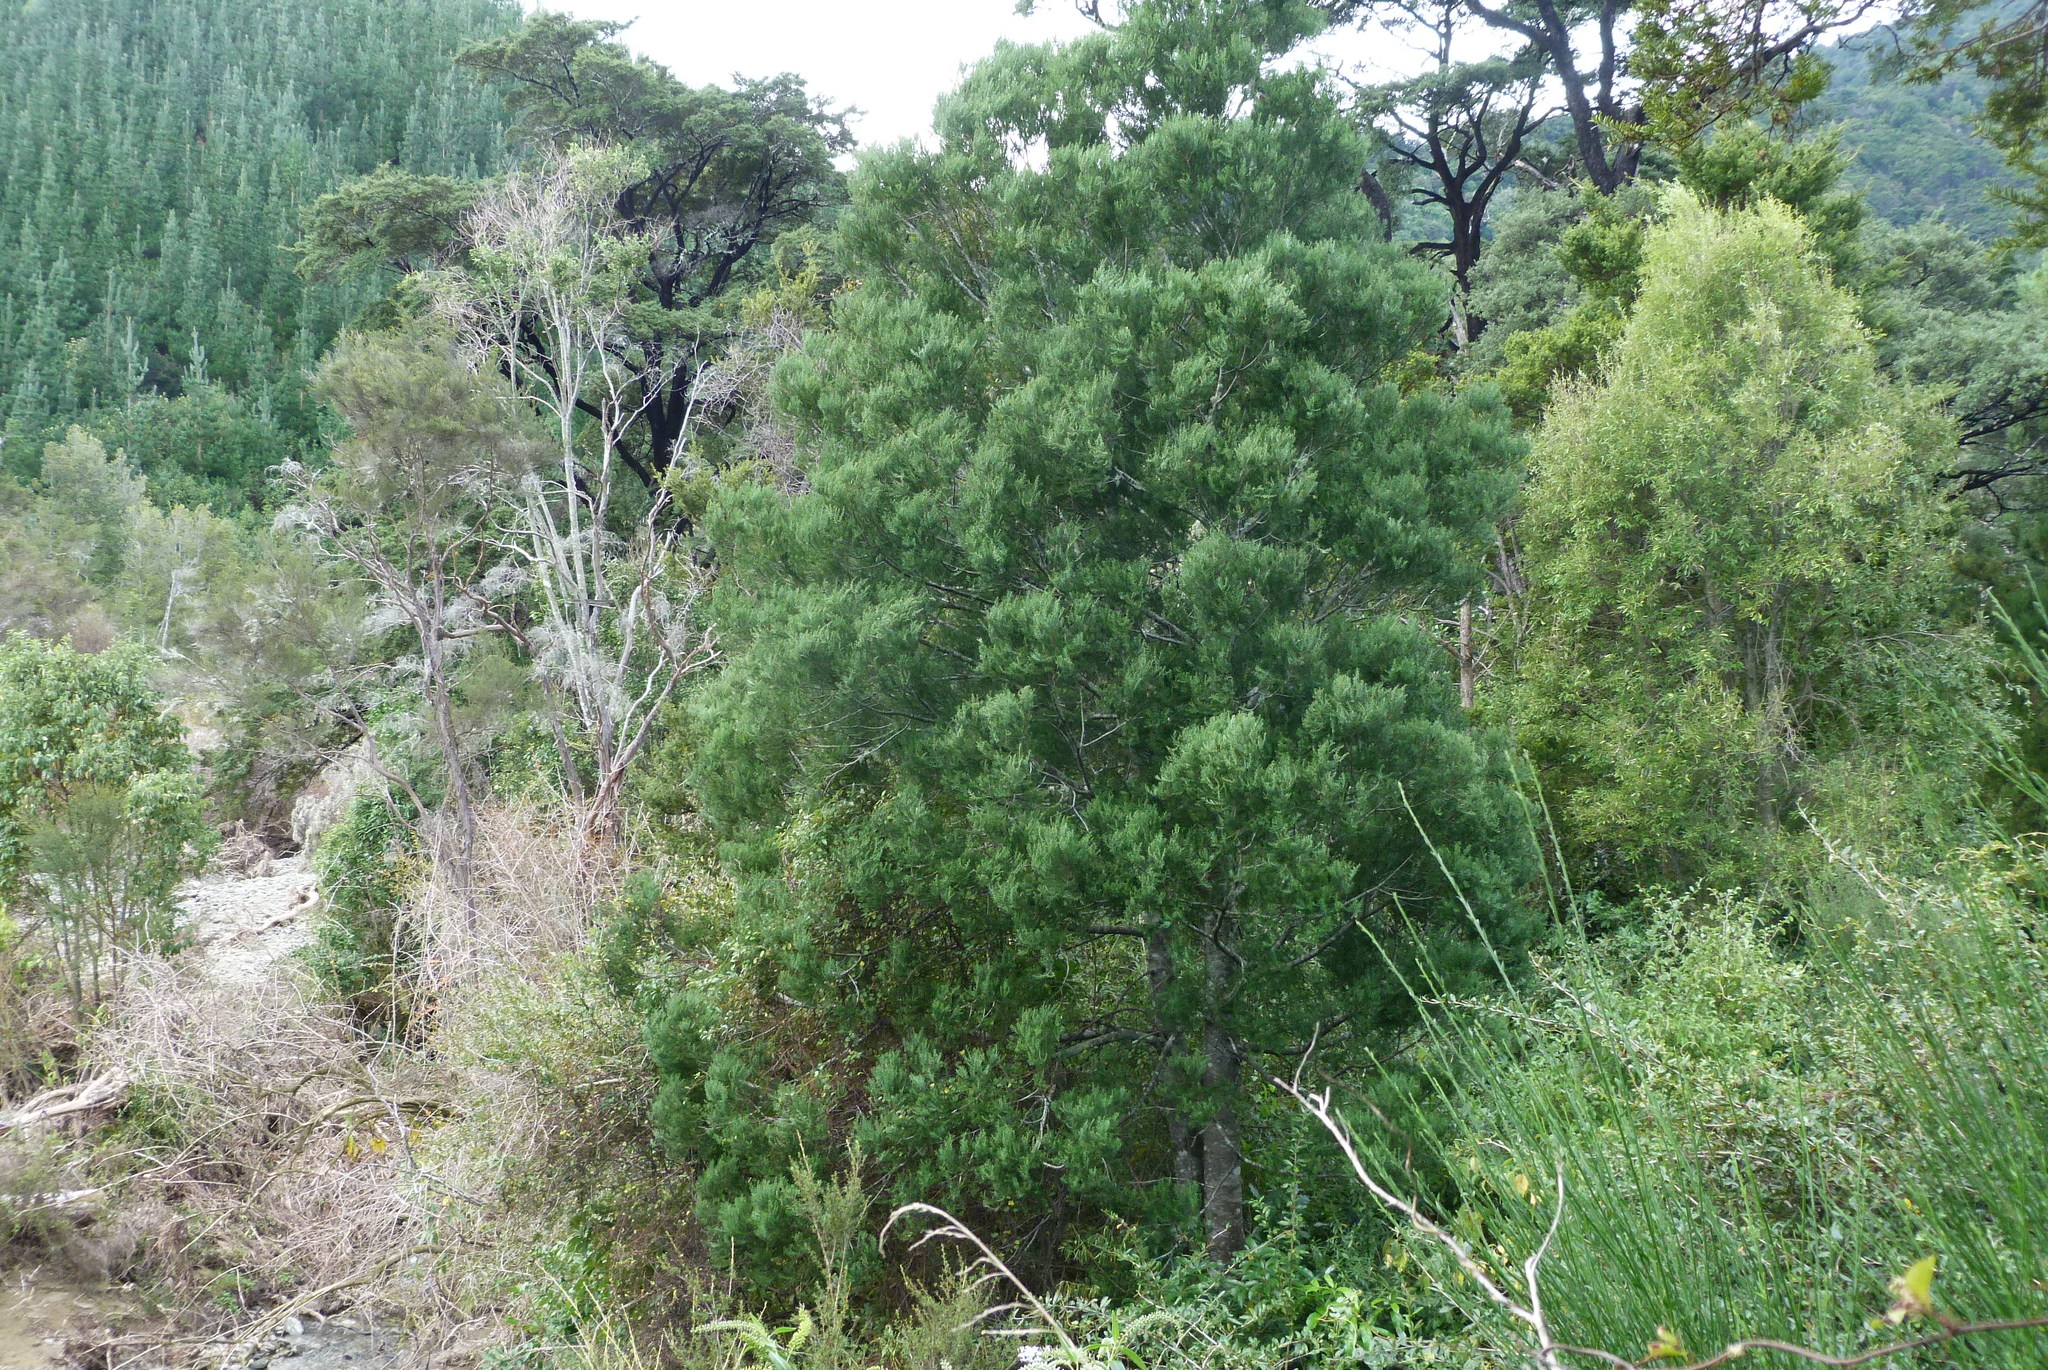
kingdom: Plantae
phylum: Tracheophyta
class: Pinopsida
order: Pinales
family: Podocarpaceae
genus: Prumnopitys
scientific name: Prumnopitys taxifolia
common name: Matai
